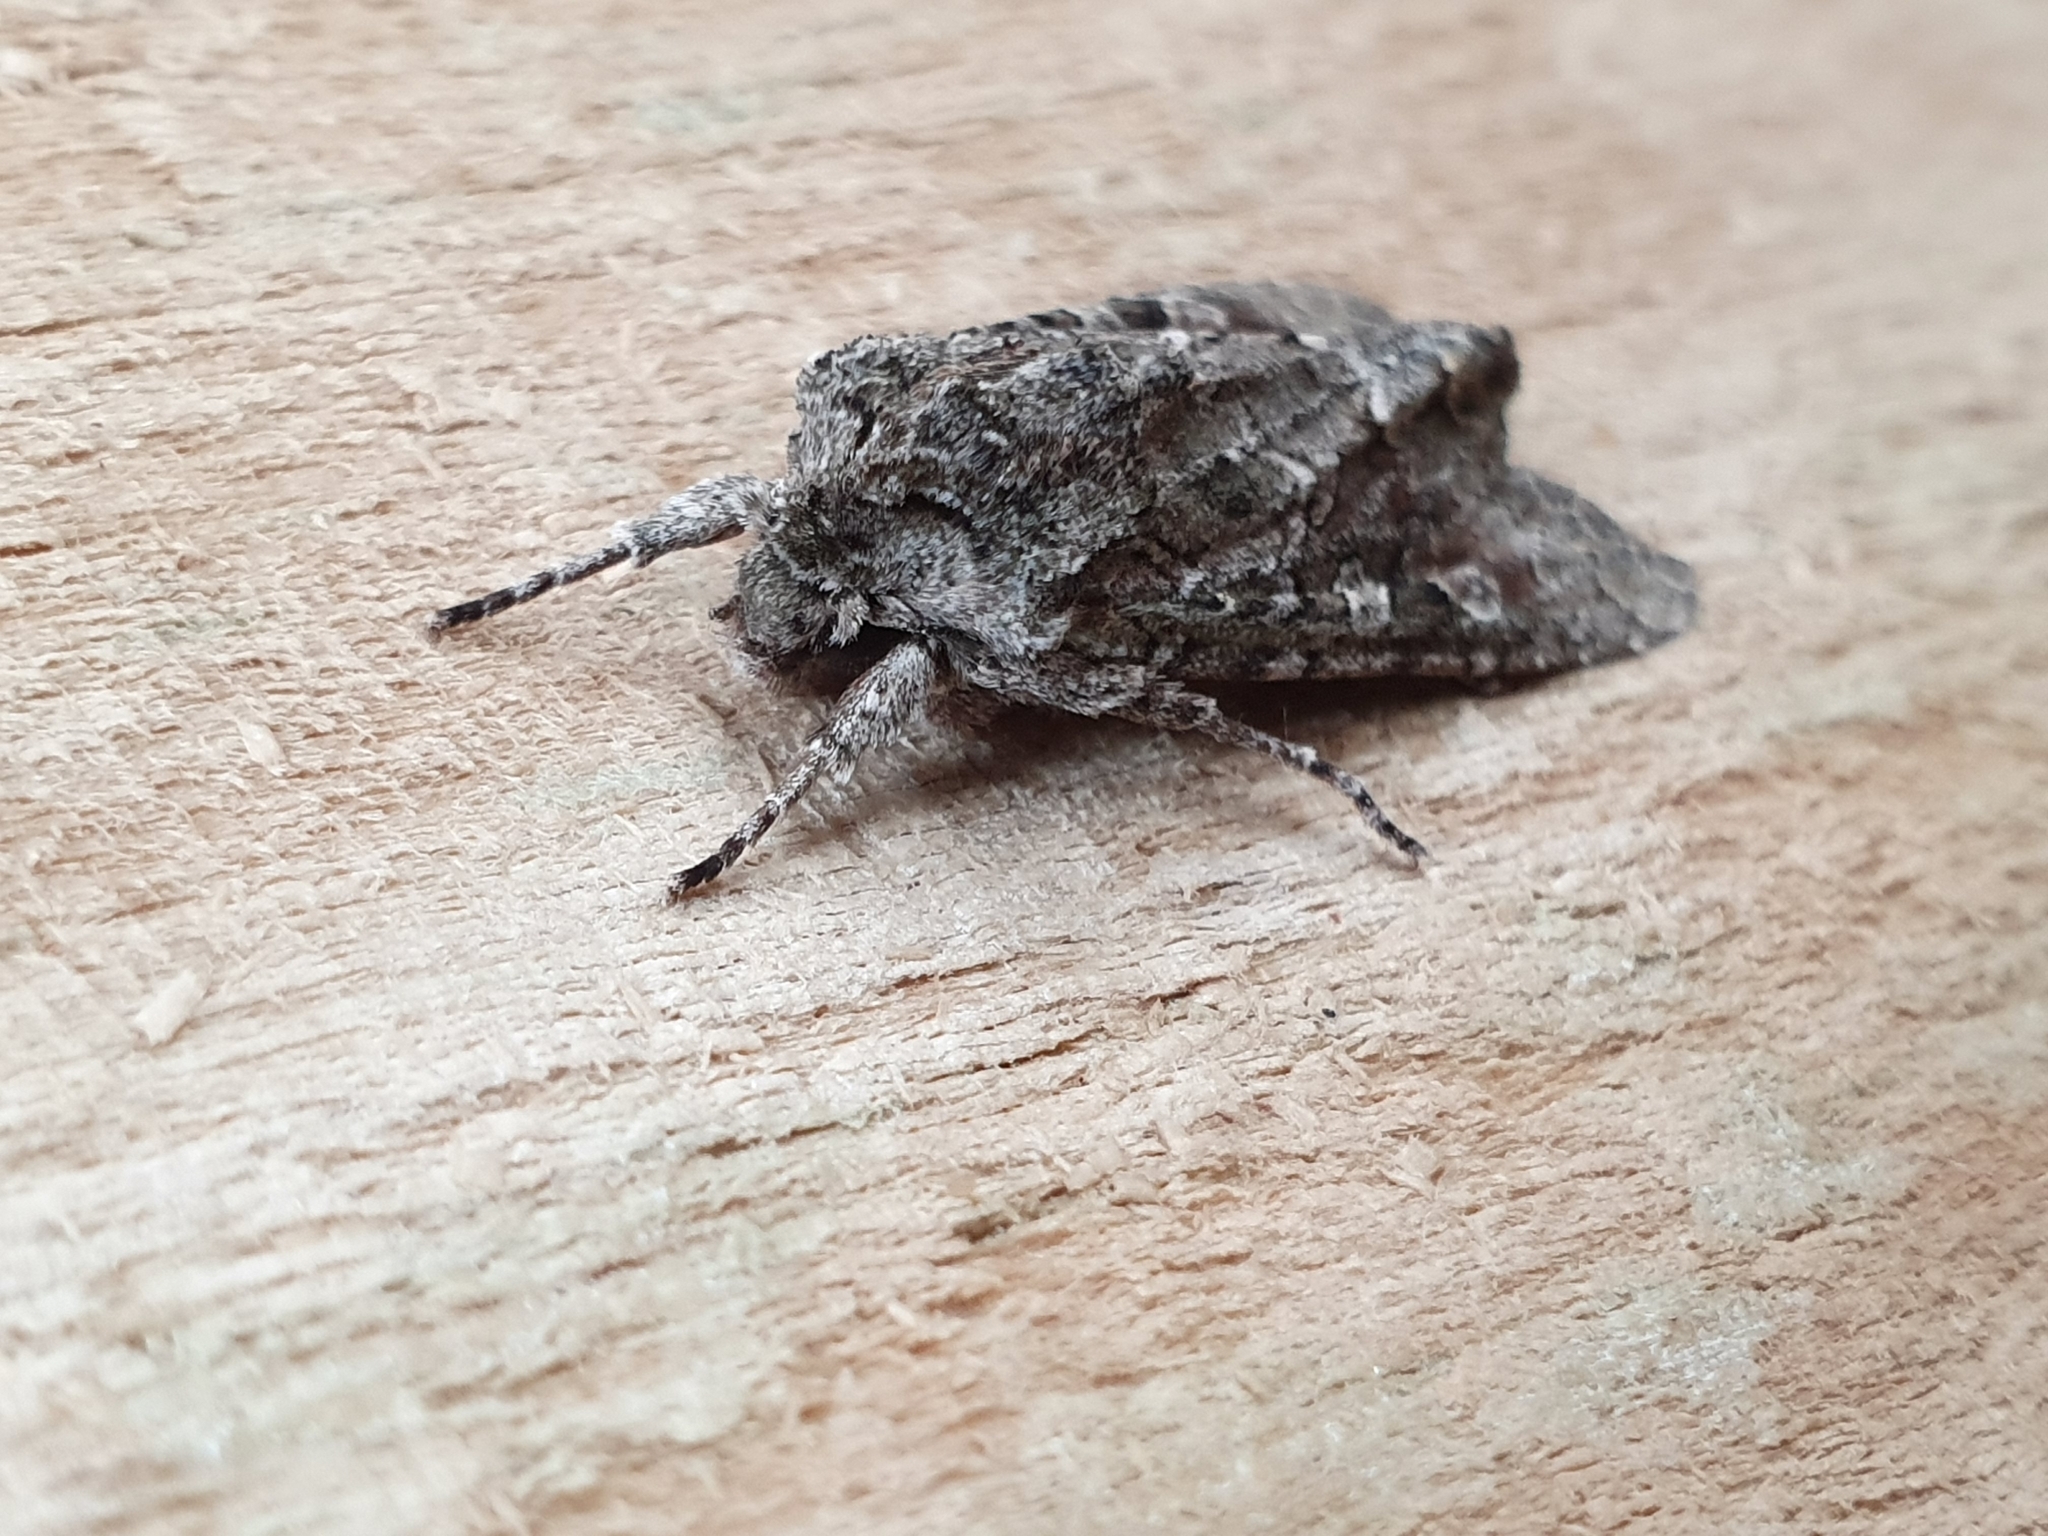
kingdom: Animalia
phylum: Arthropoda
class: Insecta
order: Lepidoptera
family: Noctuidae
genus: Ichneutica
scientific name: Ichneutica mutans
